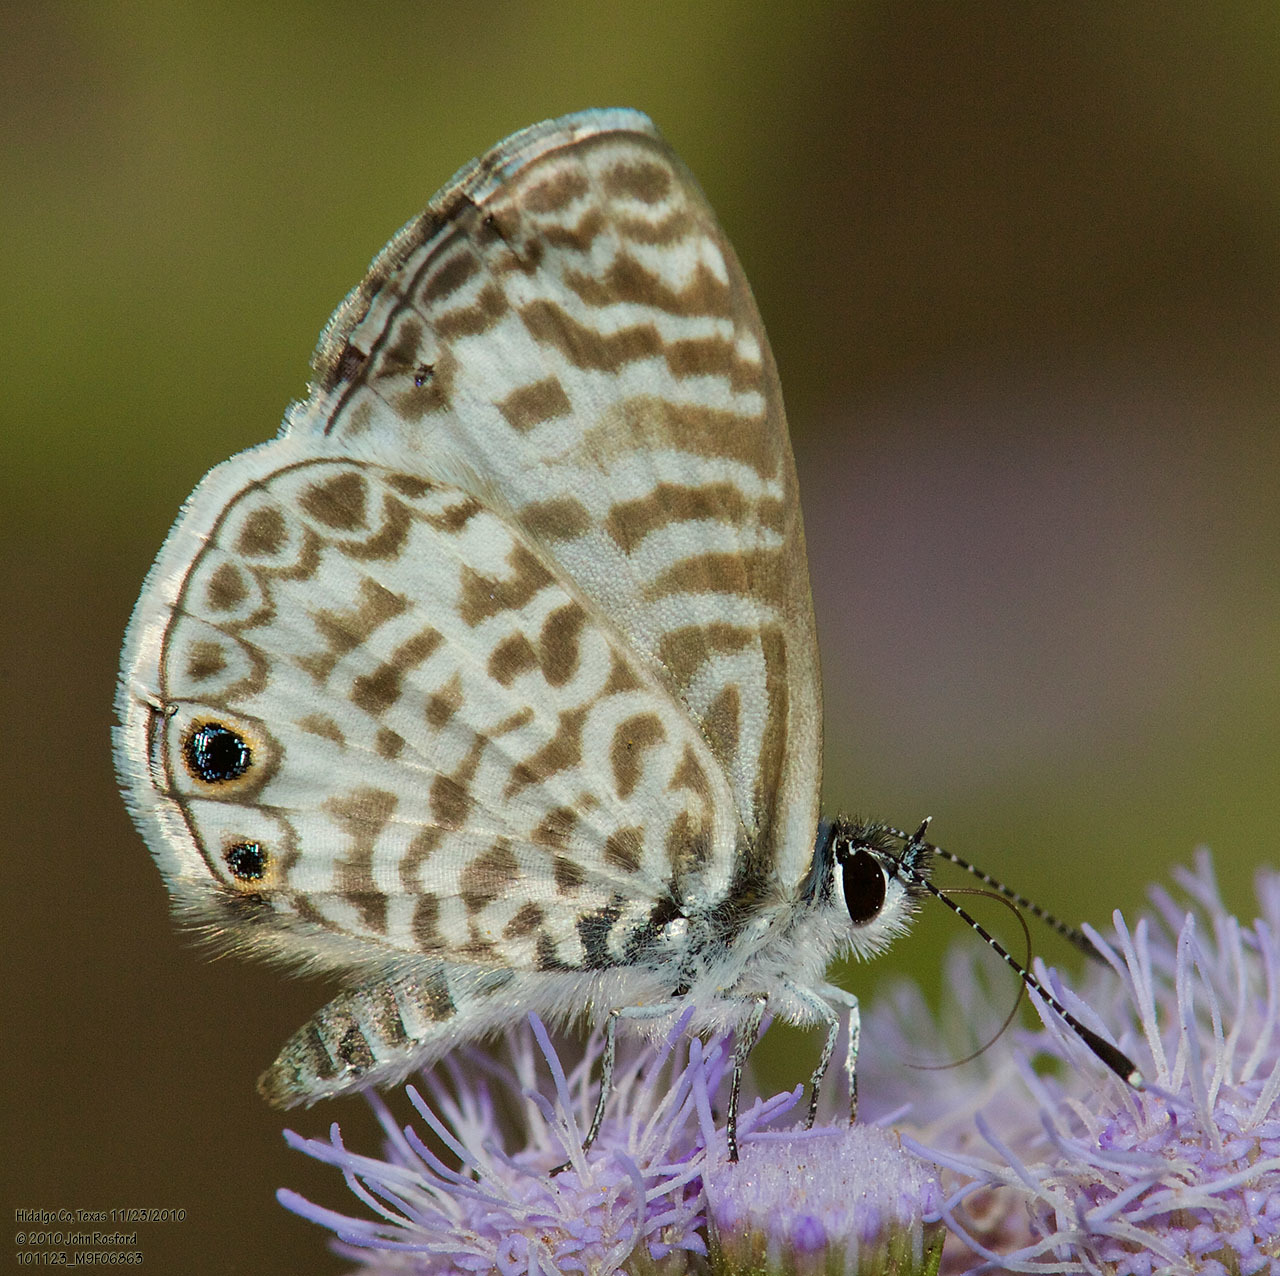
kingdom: Animalia
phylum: Arthropoda
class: Insecta
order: Lepidoptera
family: Lycaenidae
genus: Leptotes
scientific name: Leptotes cassius
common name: Cassius blue
